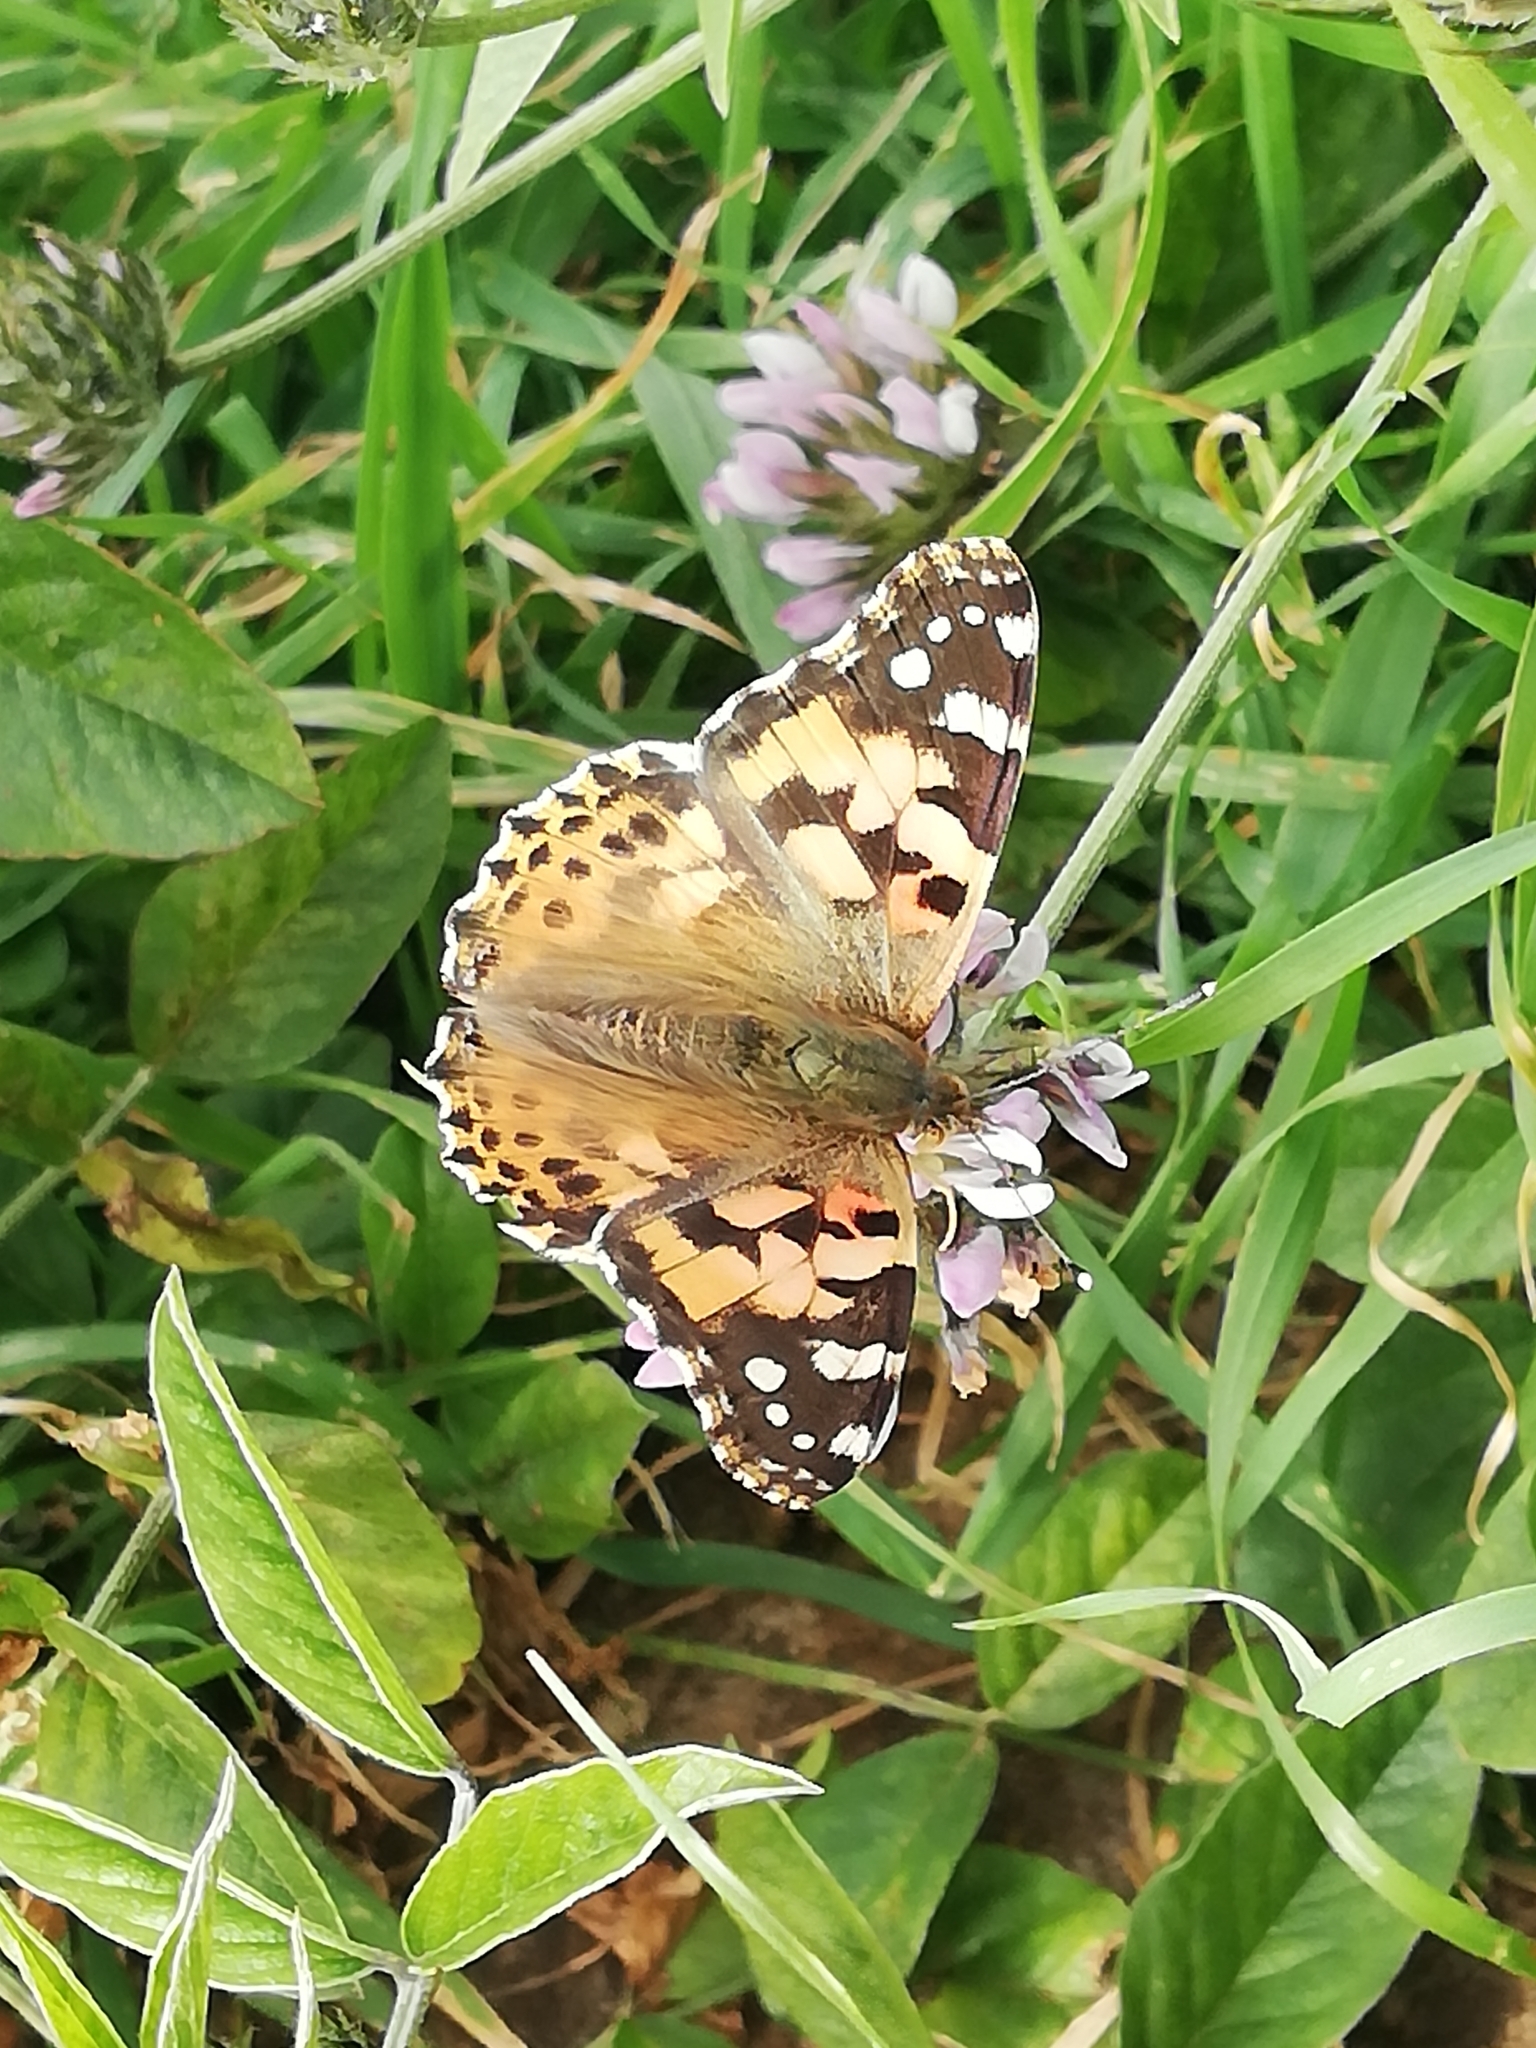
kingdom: Animalia
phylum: Arthropoda
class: Insecta
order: Lepidoptera
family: Nymphalidae
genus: Vanessa
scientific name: Vanessa cardui
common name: Painted lady
